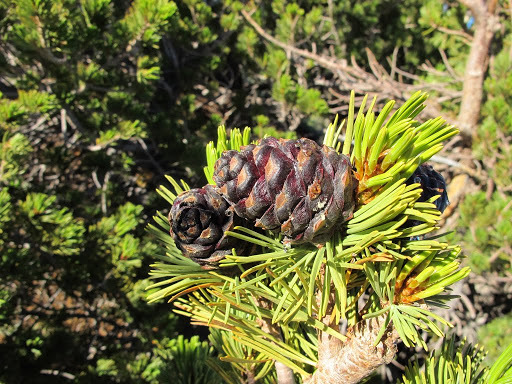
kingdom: Plantae
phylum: Tracheophyta
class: Pinopsida
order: Pinales
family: Pinaceae
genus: Pinus
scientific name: Pinus albicaulis
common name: Whitebark pine
